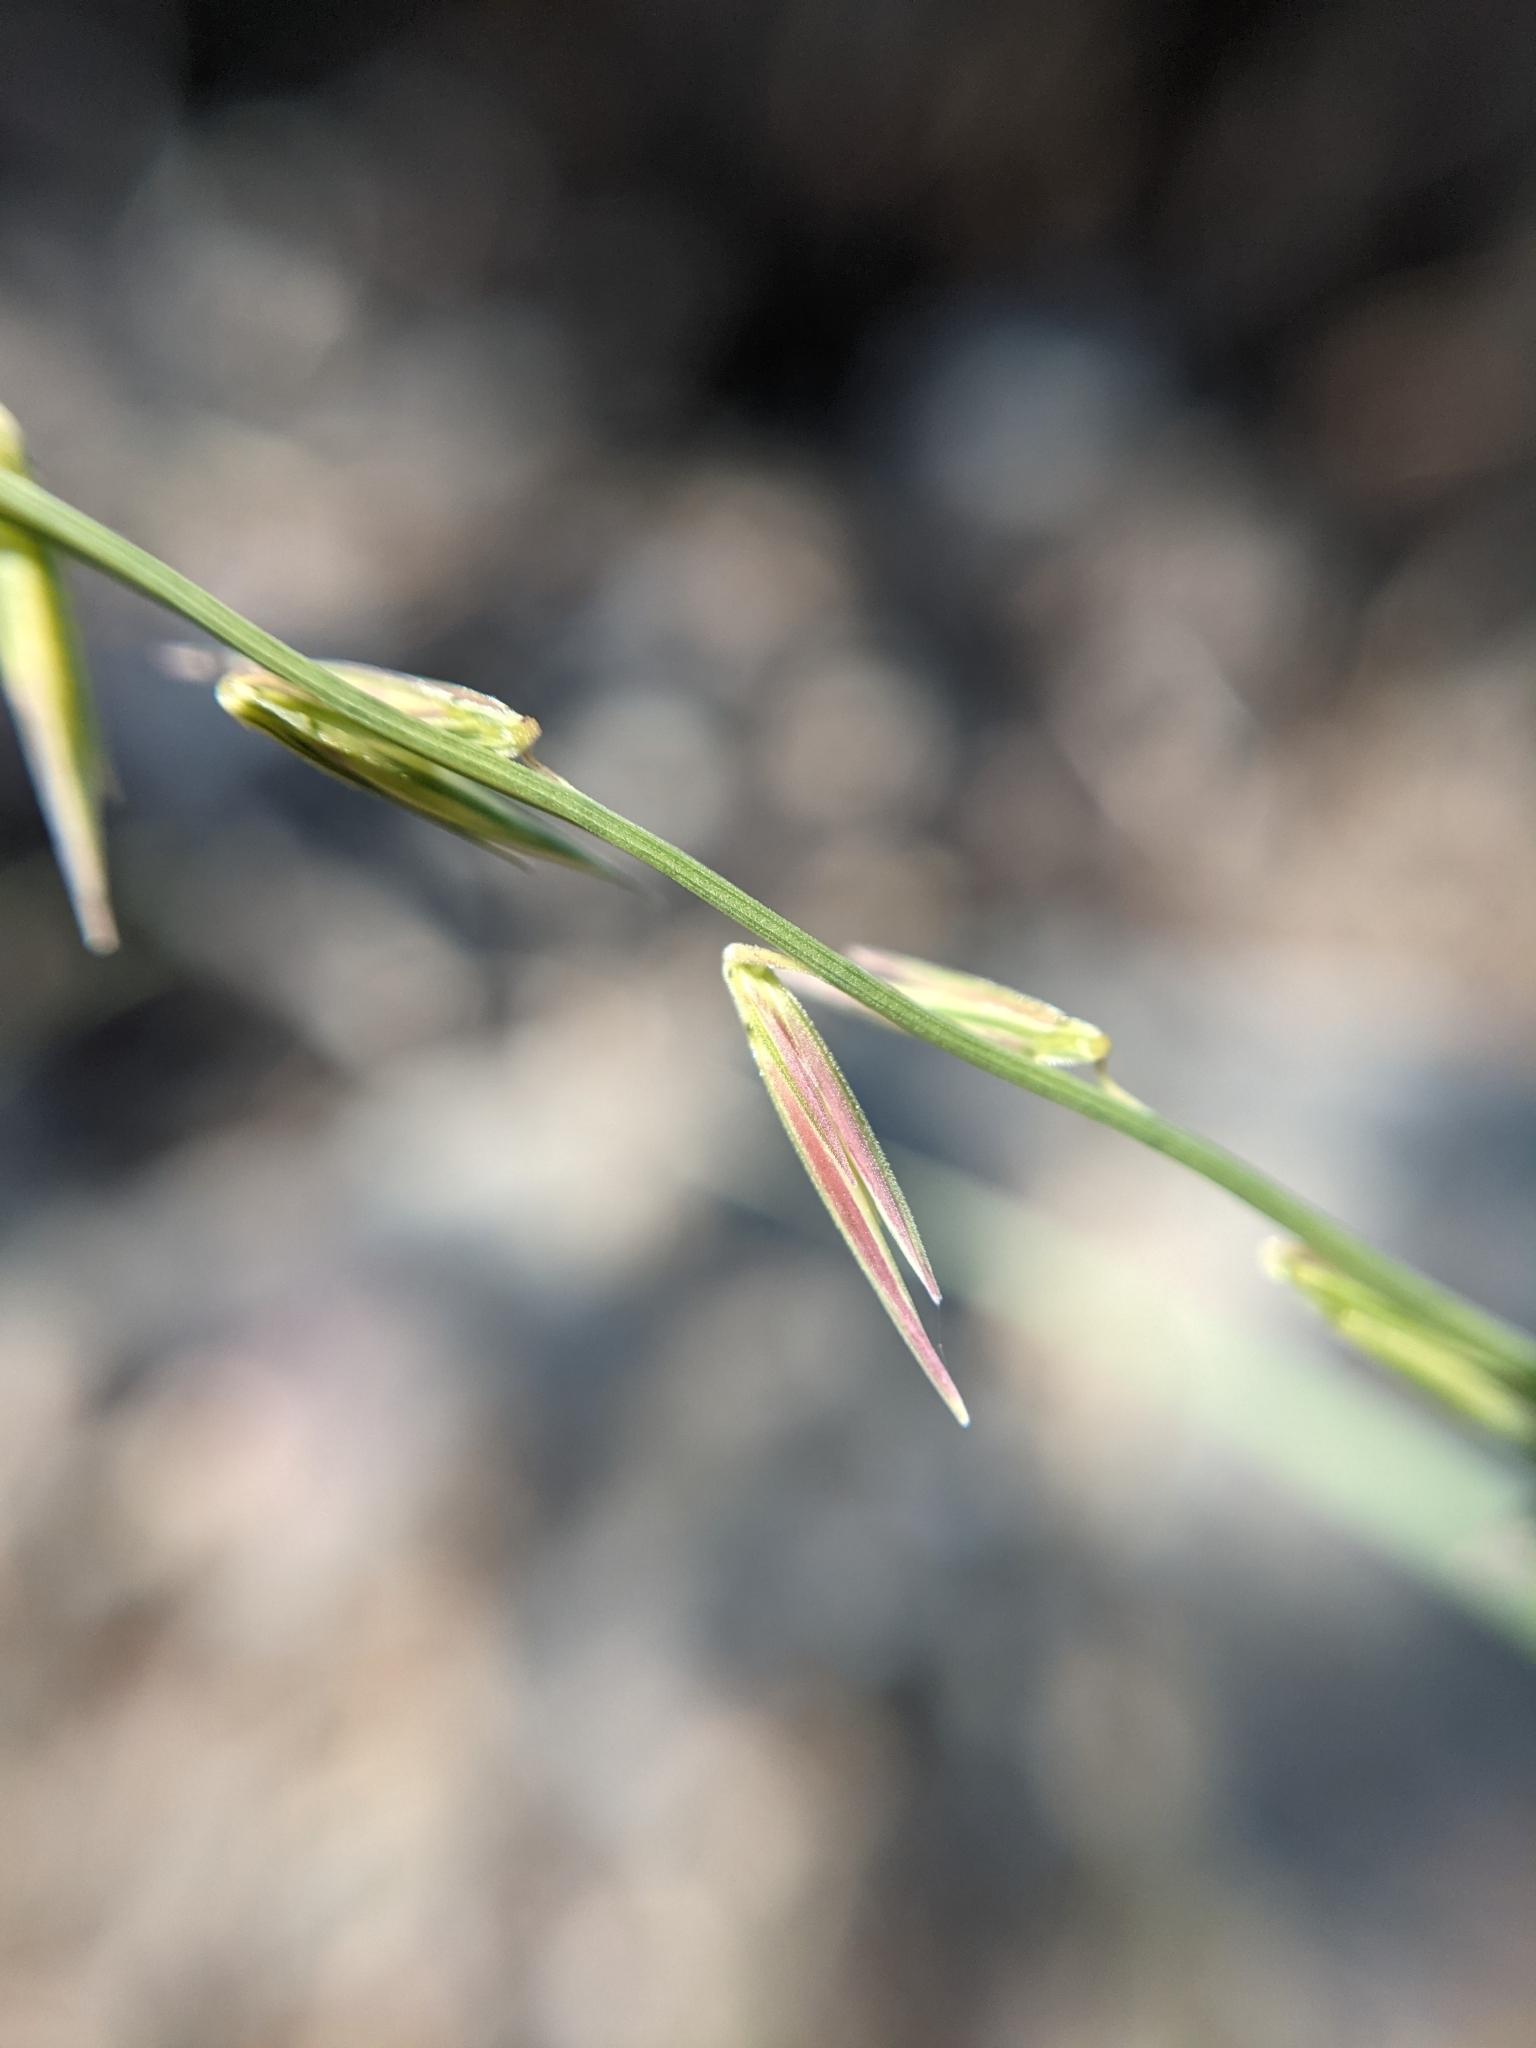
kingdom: Plantae
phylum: Tracheophyta
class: Liliopsida
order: Poales
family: Poaceae
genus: Bouteloua
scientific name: Bouteloua uniflora
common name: Neally's grama
